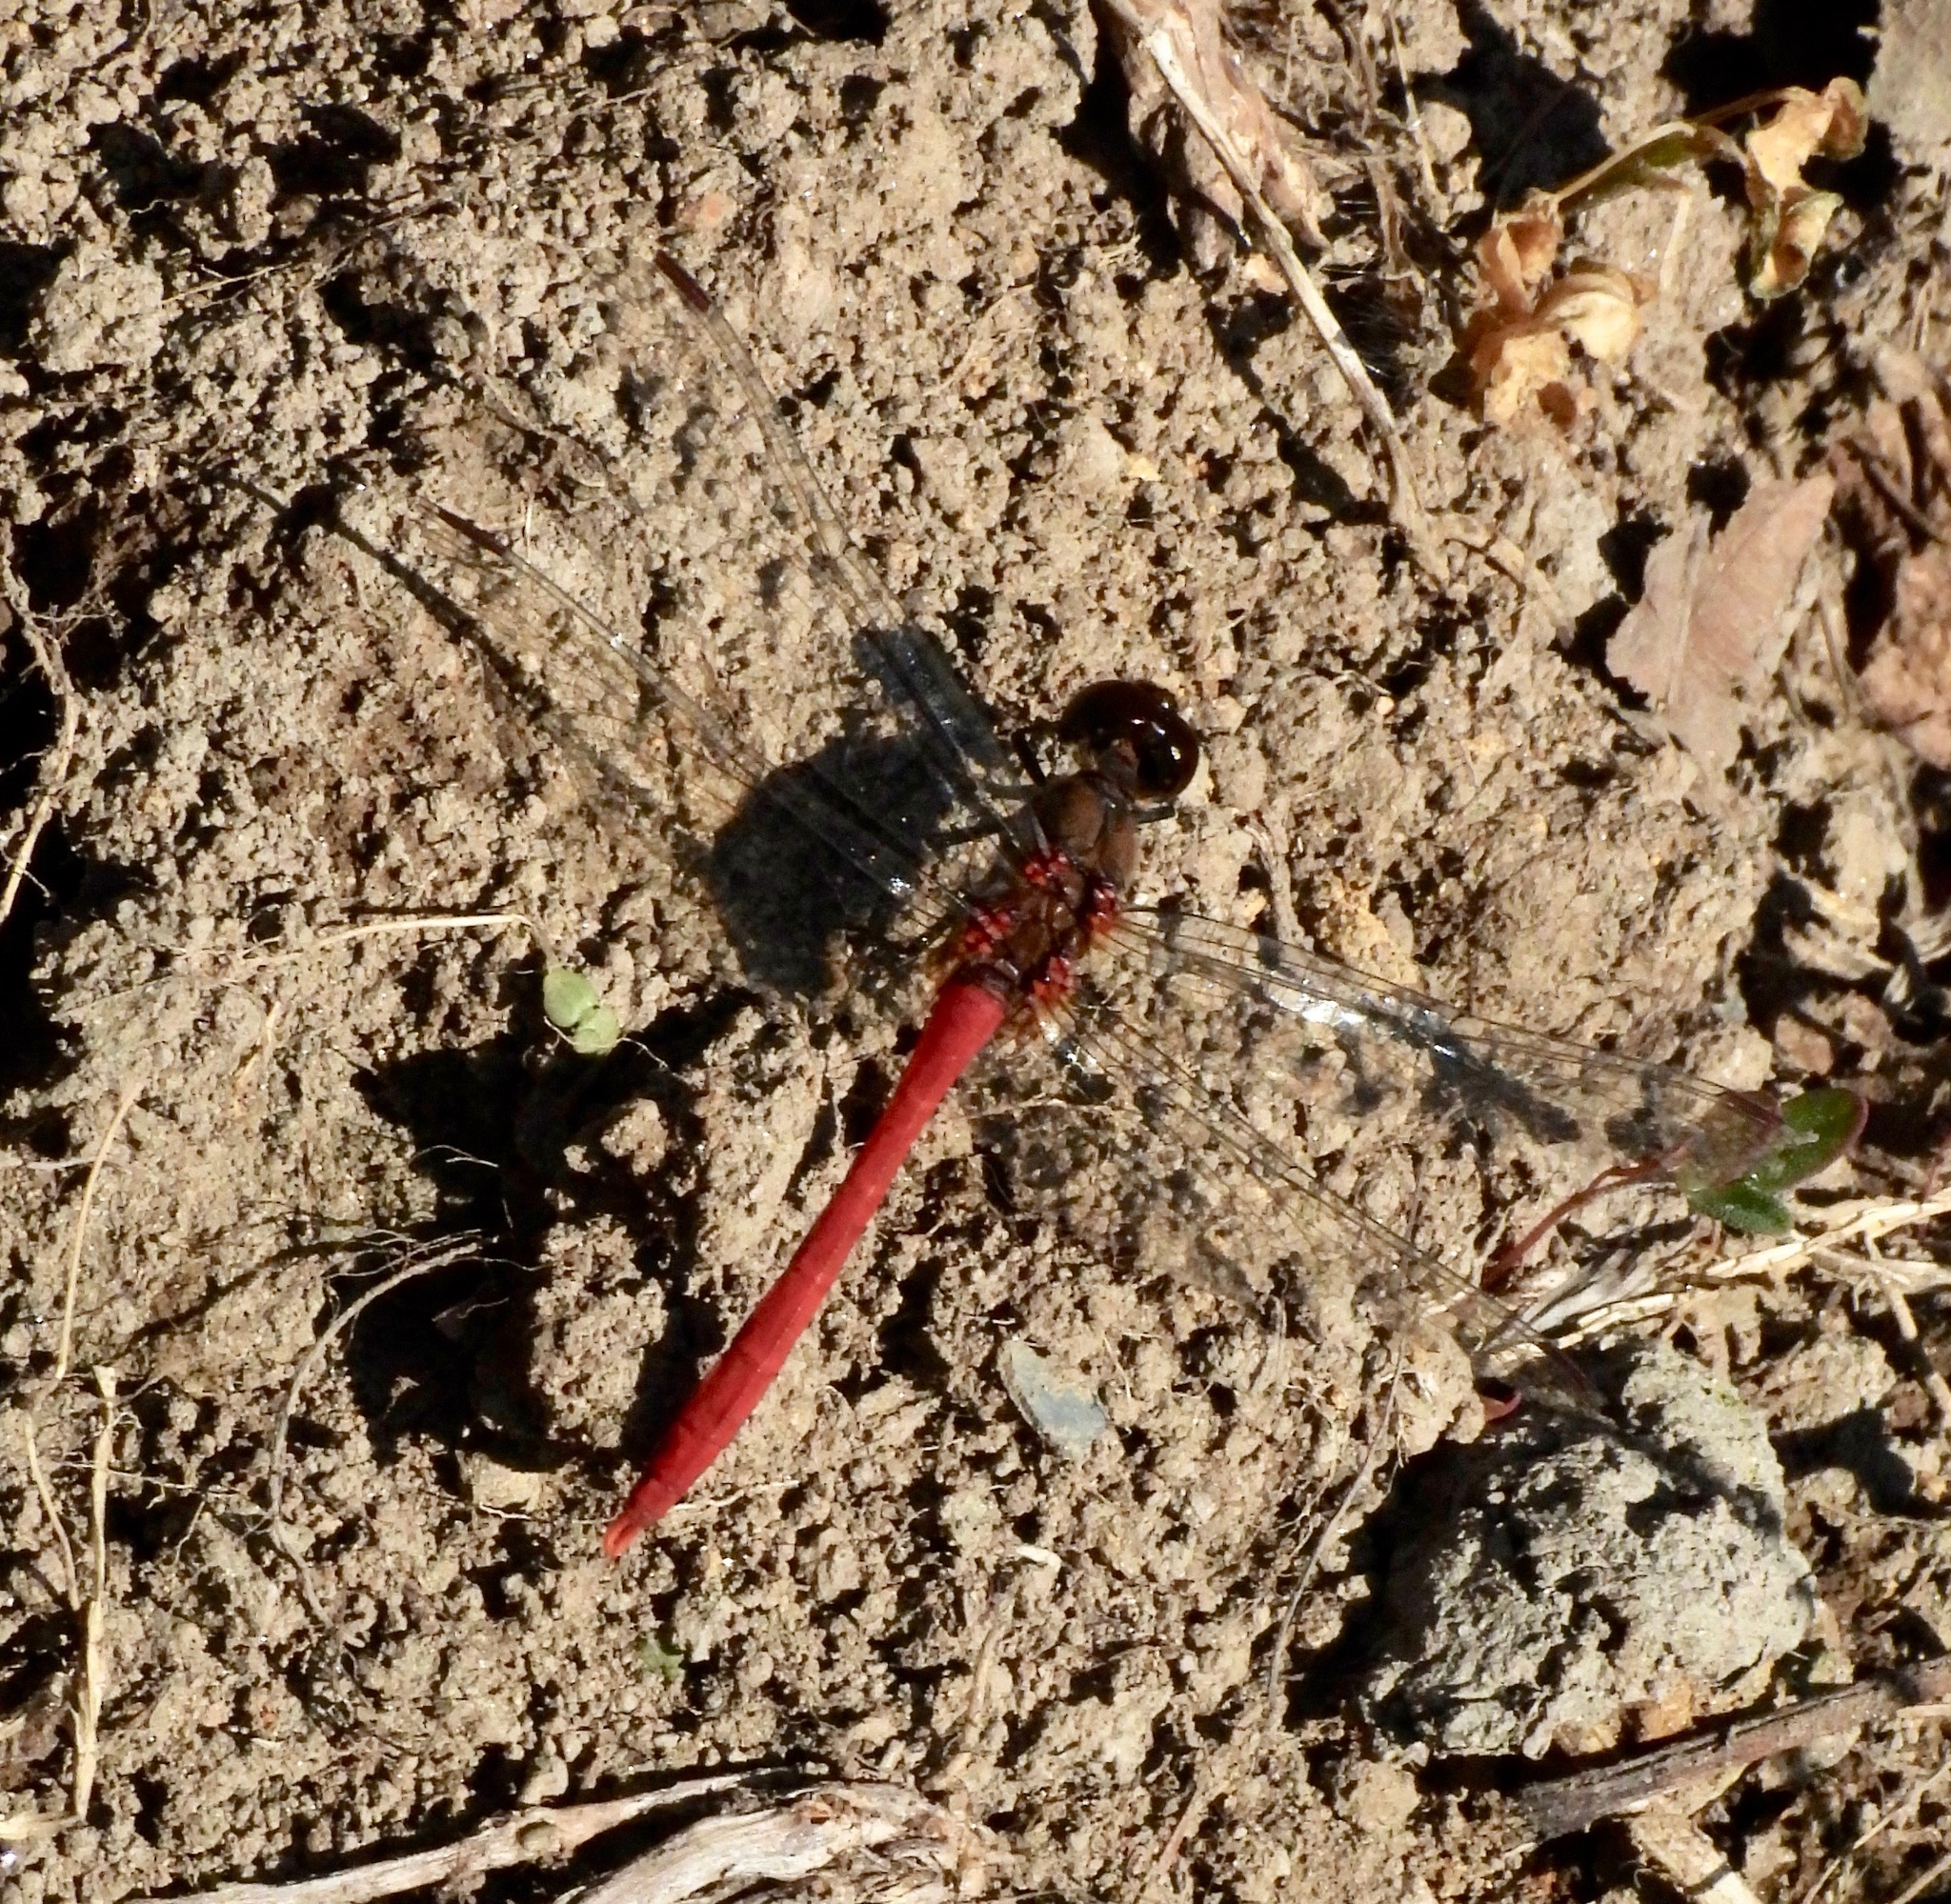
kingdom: Animalia
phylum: Arthropoda
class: Insecta
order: Odonata
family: Libellulidae
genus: Sympetrum
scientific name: Sympetrum eroticum
